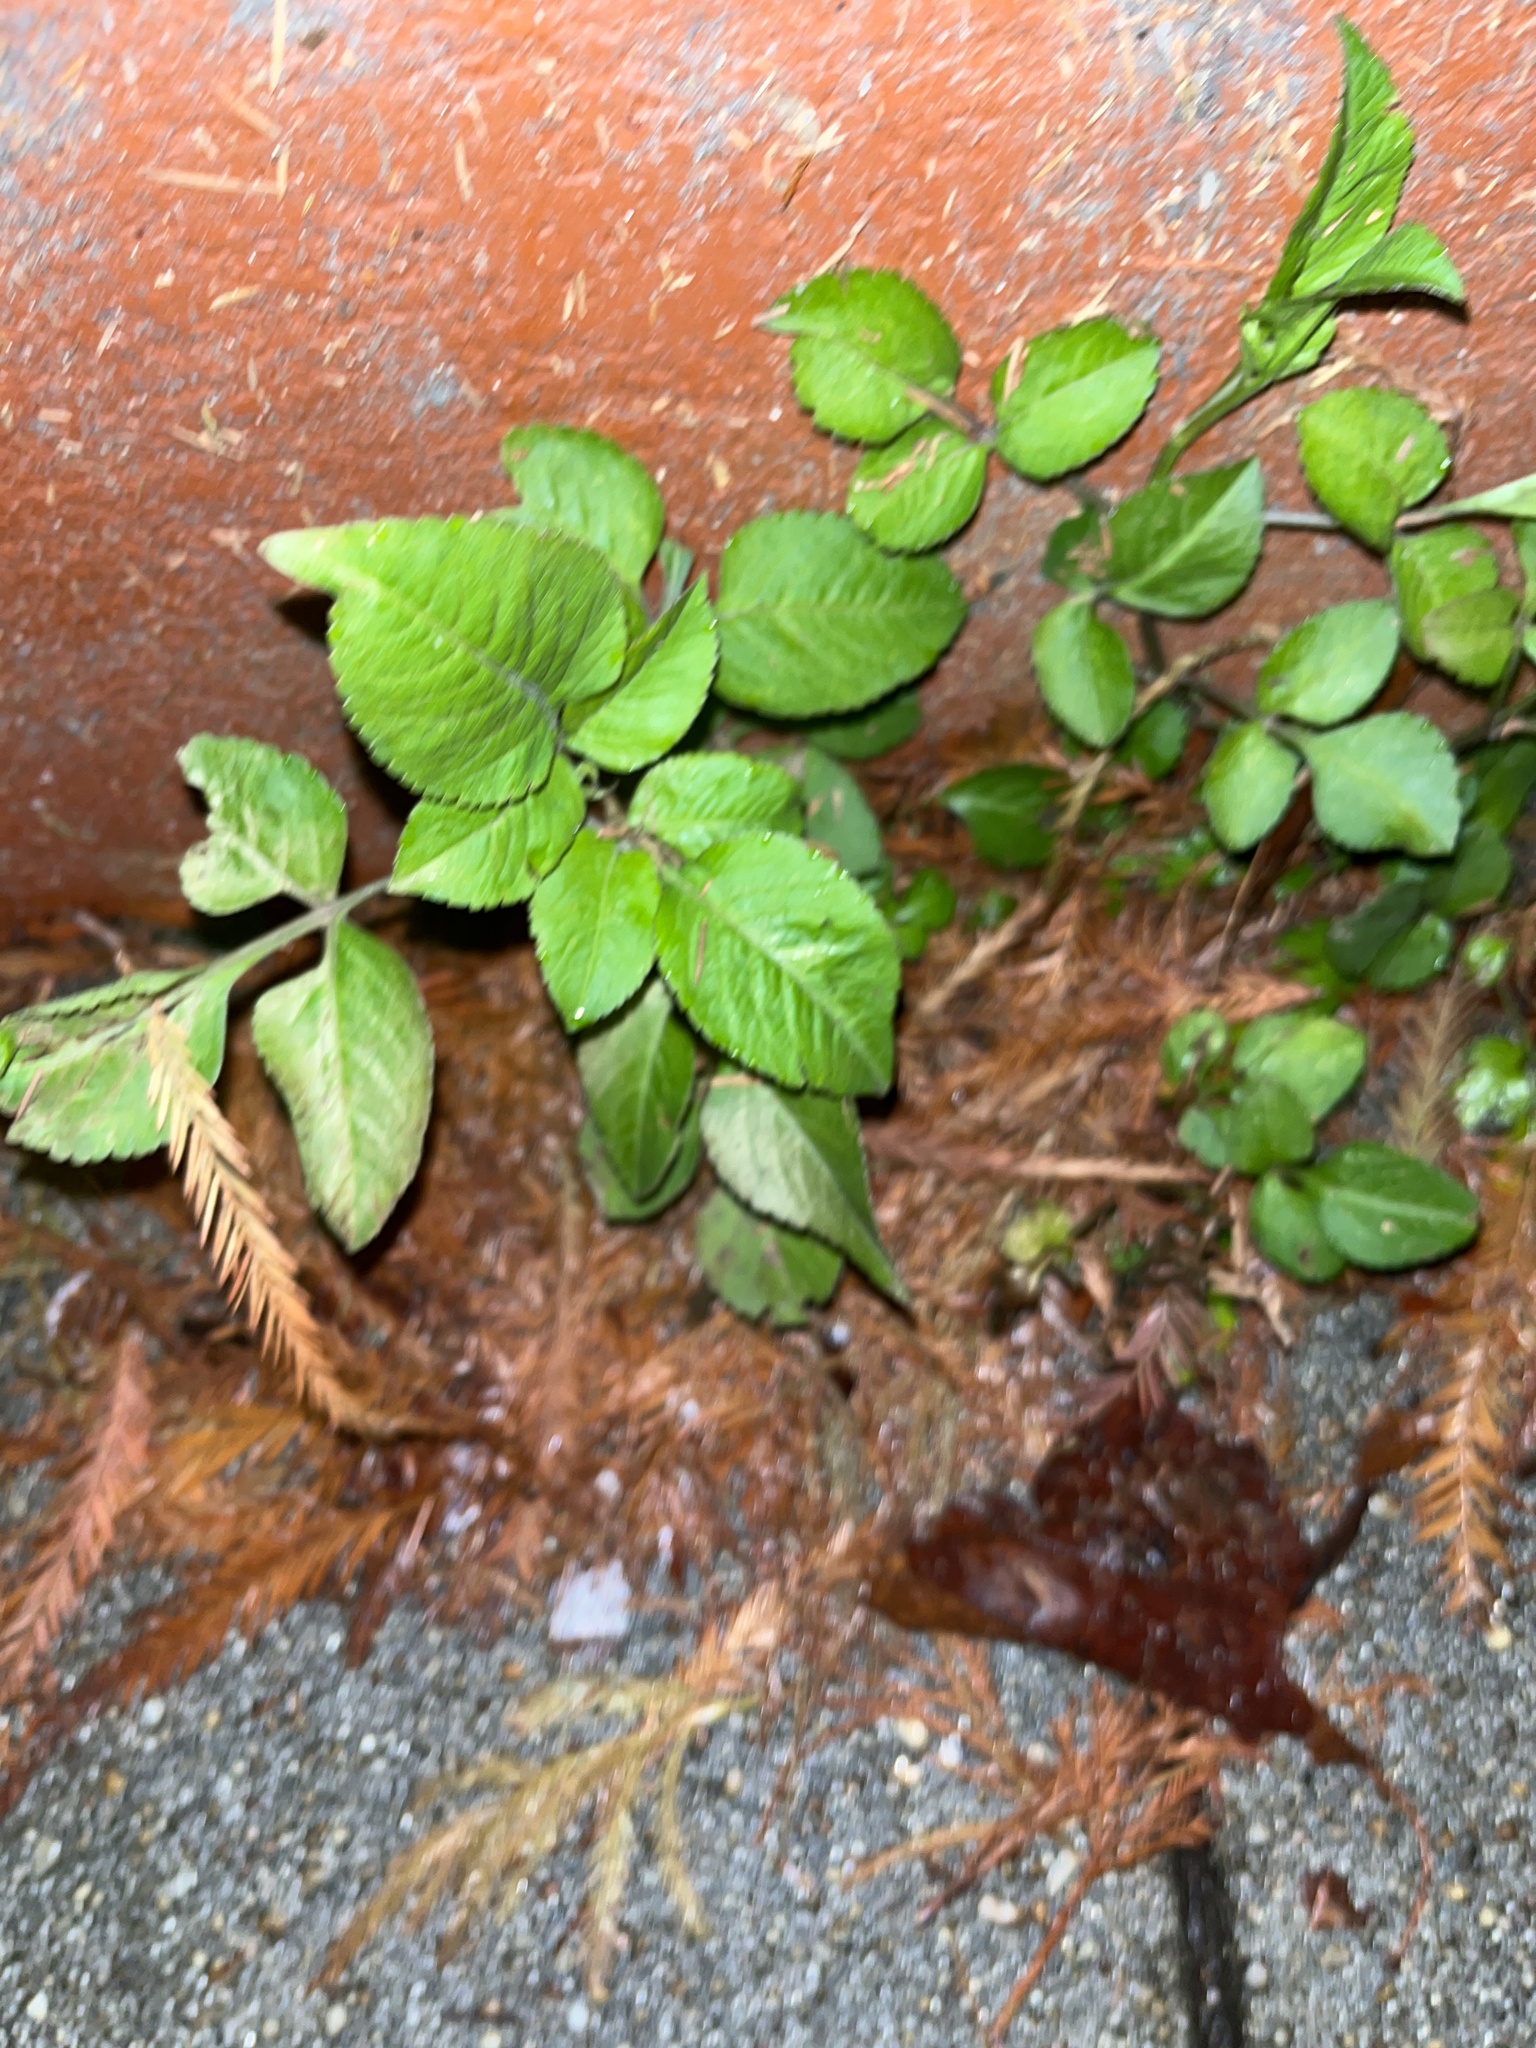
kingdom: Plantae
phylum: Tracheophyta
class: Magnoliopsida
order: Asterales
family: Asteraceae
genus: Bidens
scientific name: Bidens alba
